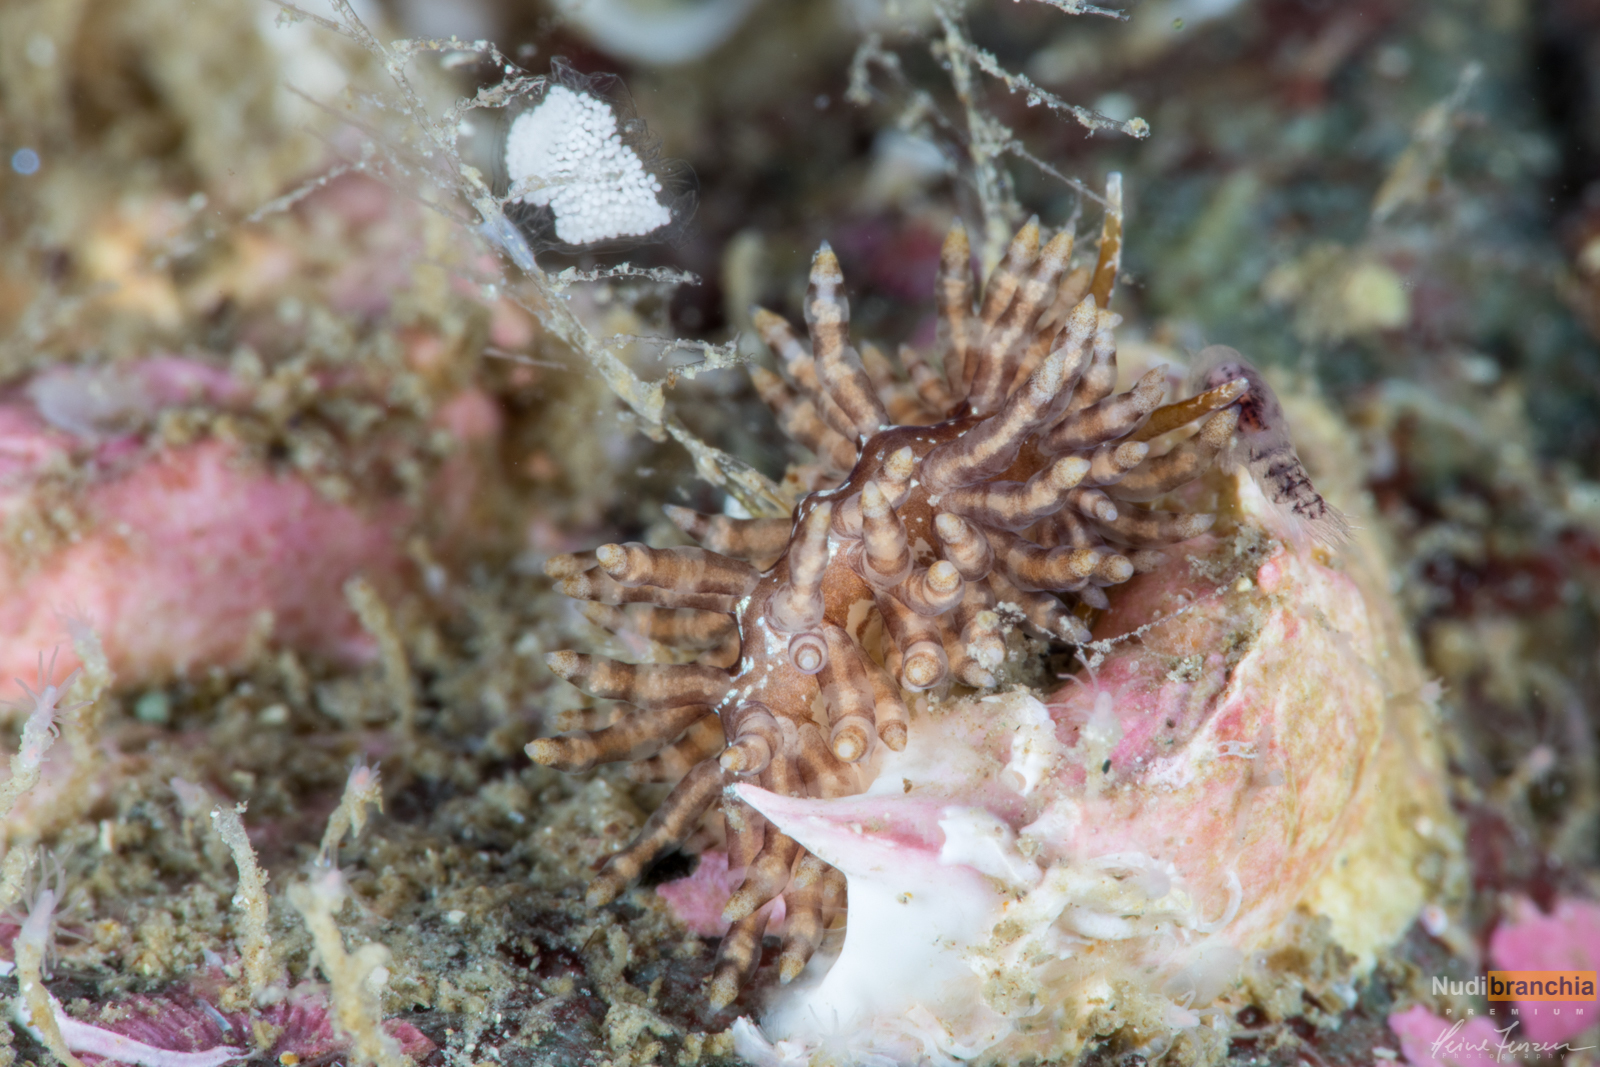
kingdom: Animalia
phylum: Mollusca
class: Gastropoda
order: Nudibranchia
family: Eubranchidae
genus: Eubranchus
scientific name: Eubranchus vittatus
